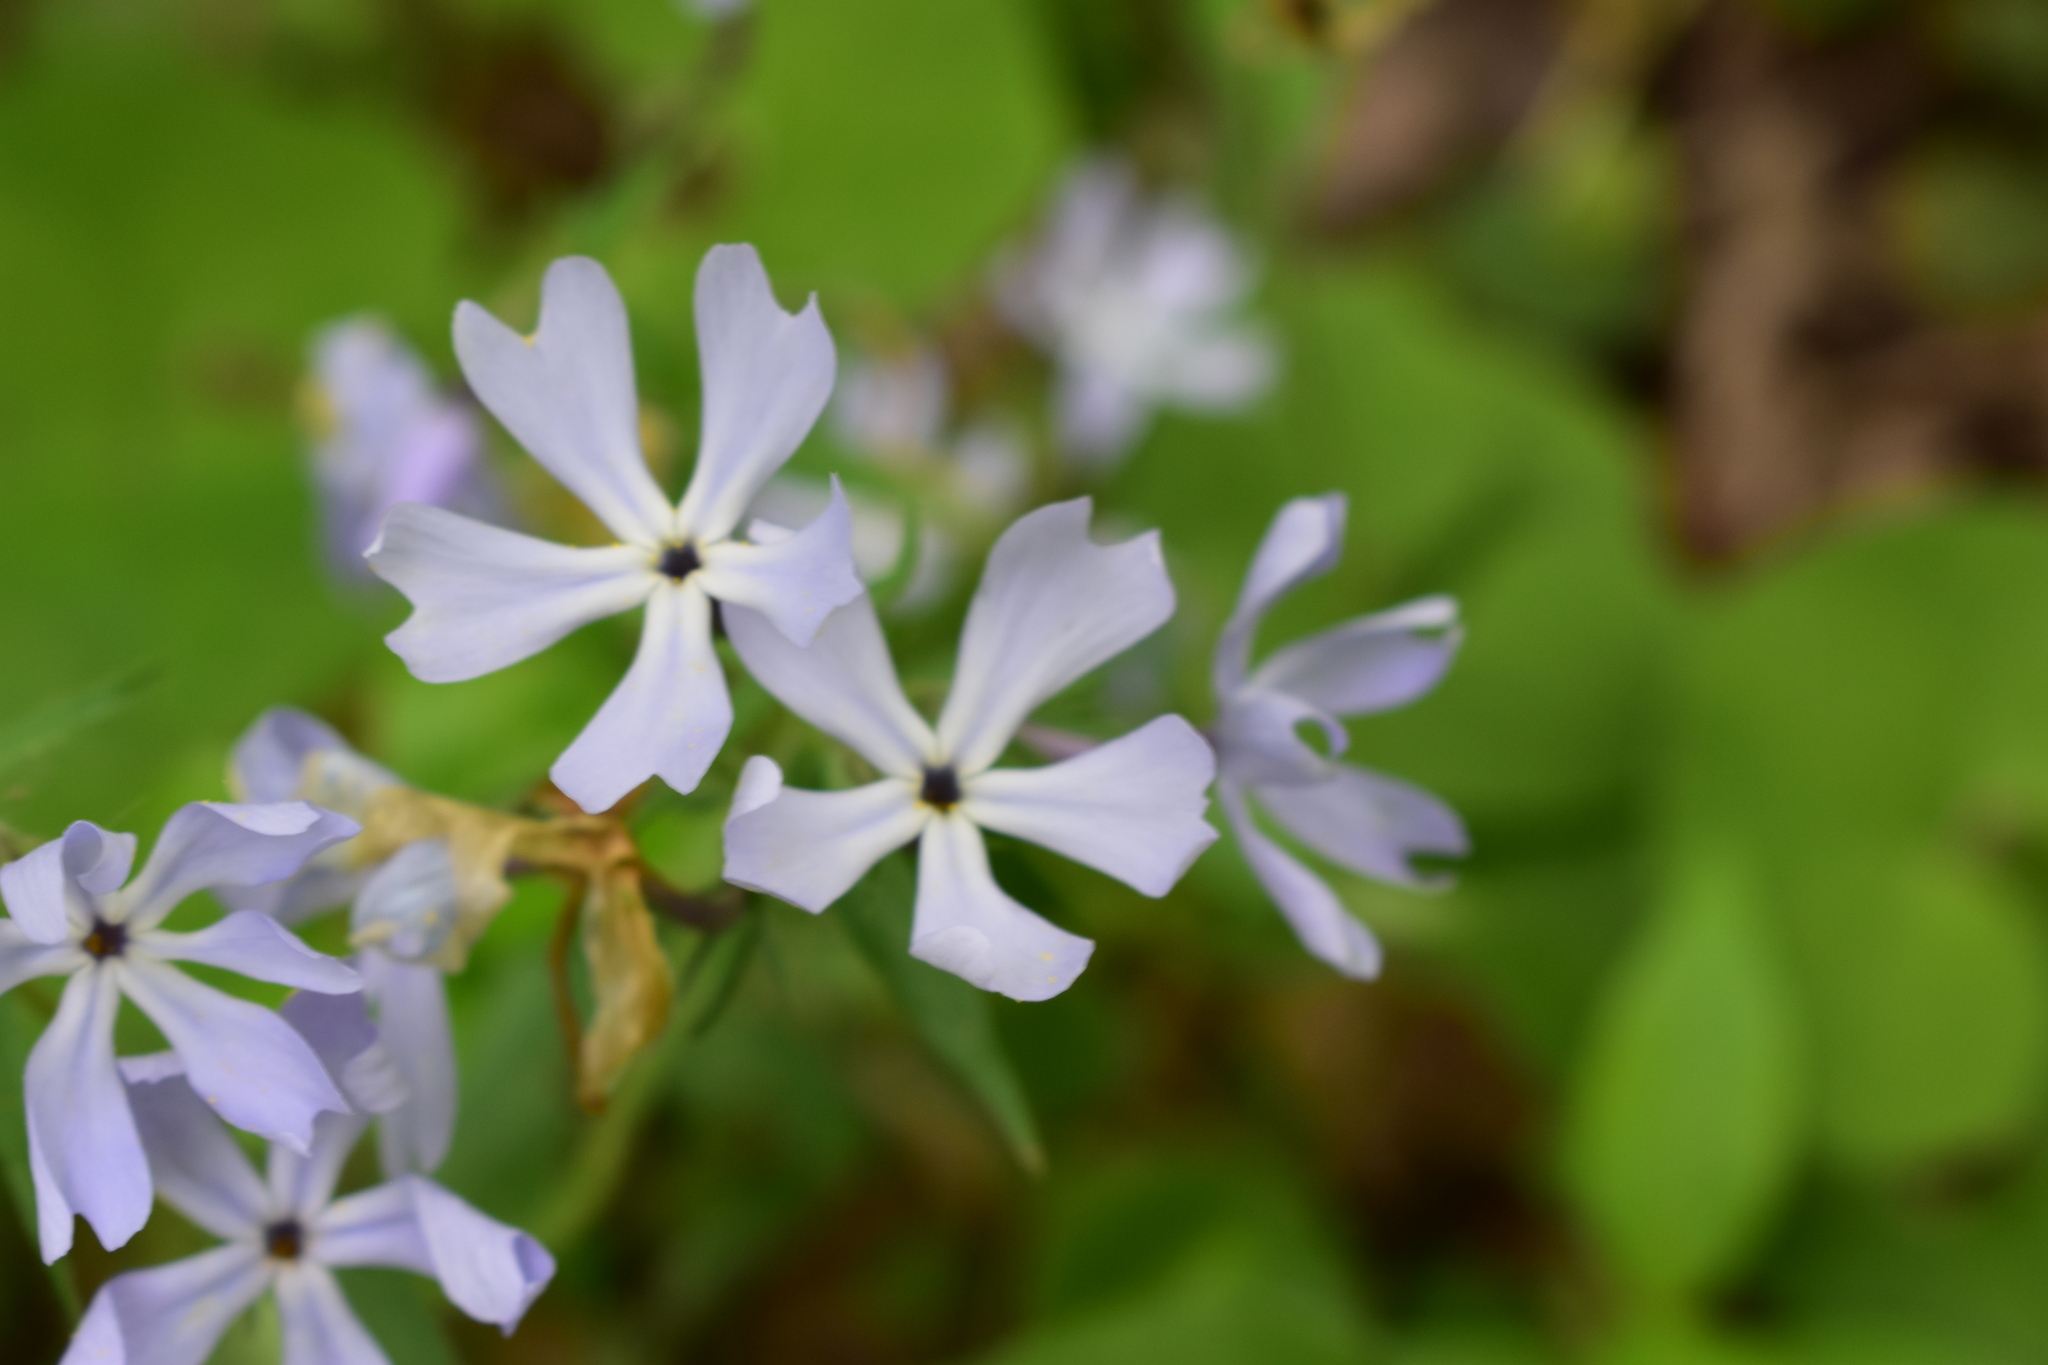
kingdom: Plantae
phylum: Tracheophyta
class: Magnoliopsida
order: Ericales
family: Polemoniaceae
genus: Phlox
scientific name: Phlox divaricata
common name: Blue phlox
